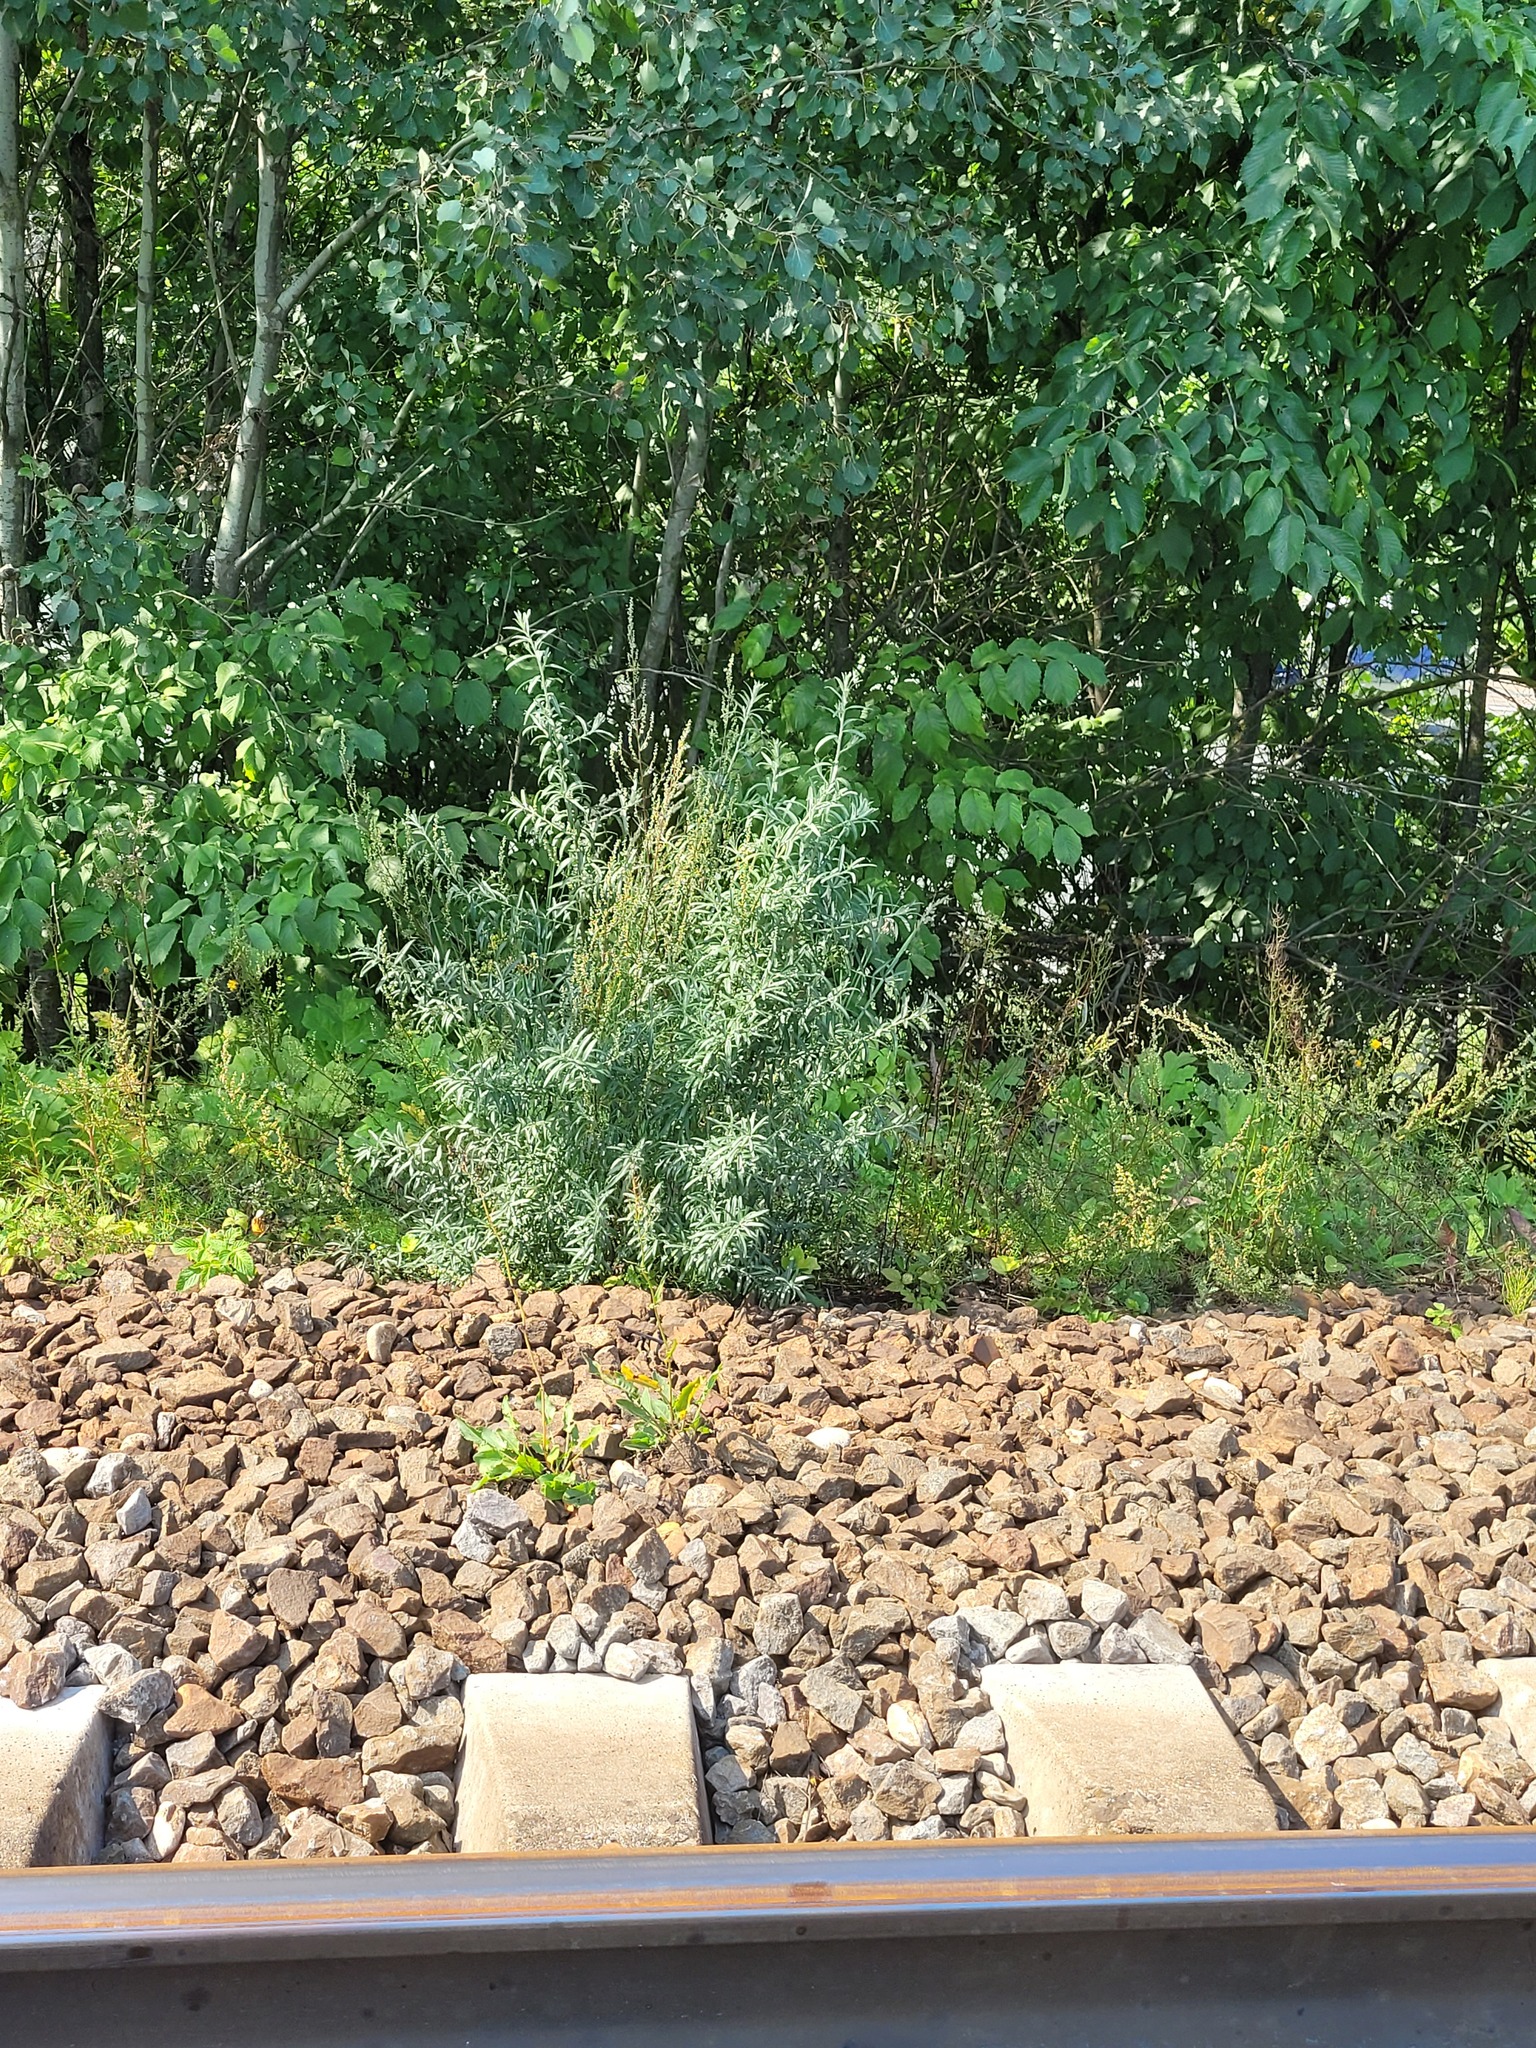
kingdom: Plantae
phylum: Tracheophyta
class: Magnoliopsida
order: Rosales
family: Elaeagnaceae
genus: Hippophae
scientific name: Hippophae rhamnoides
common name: Sea-buckthorn
